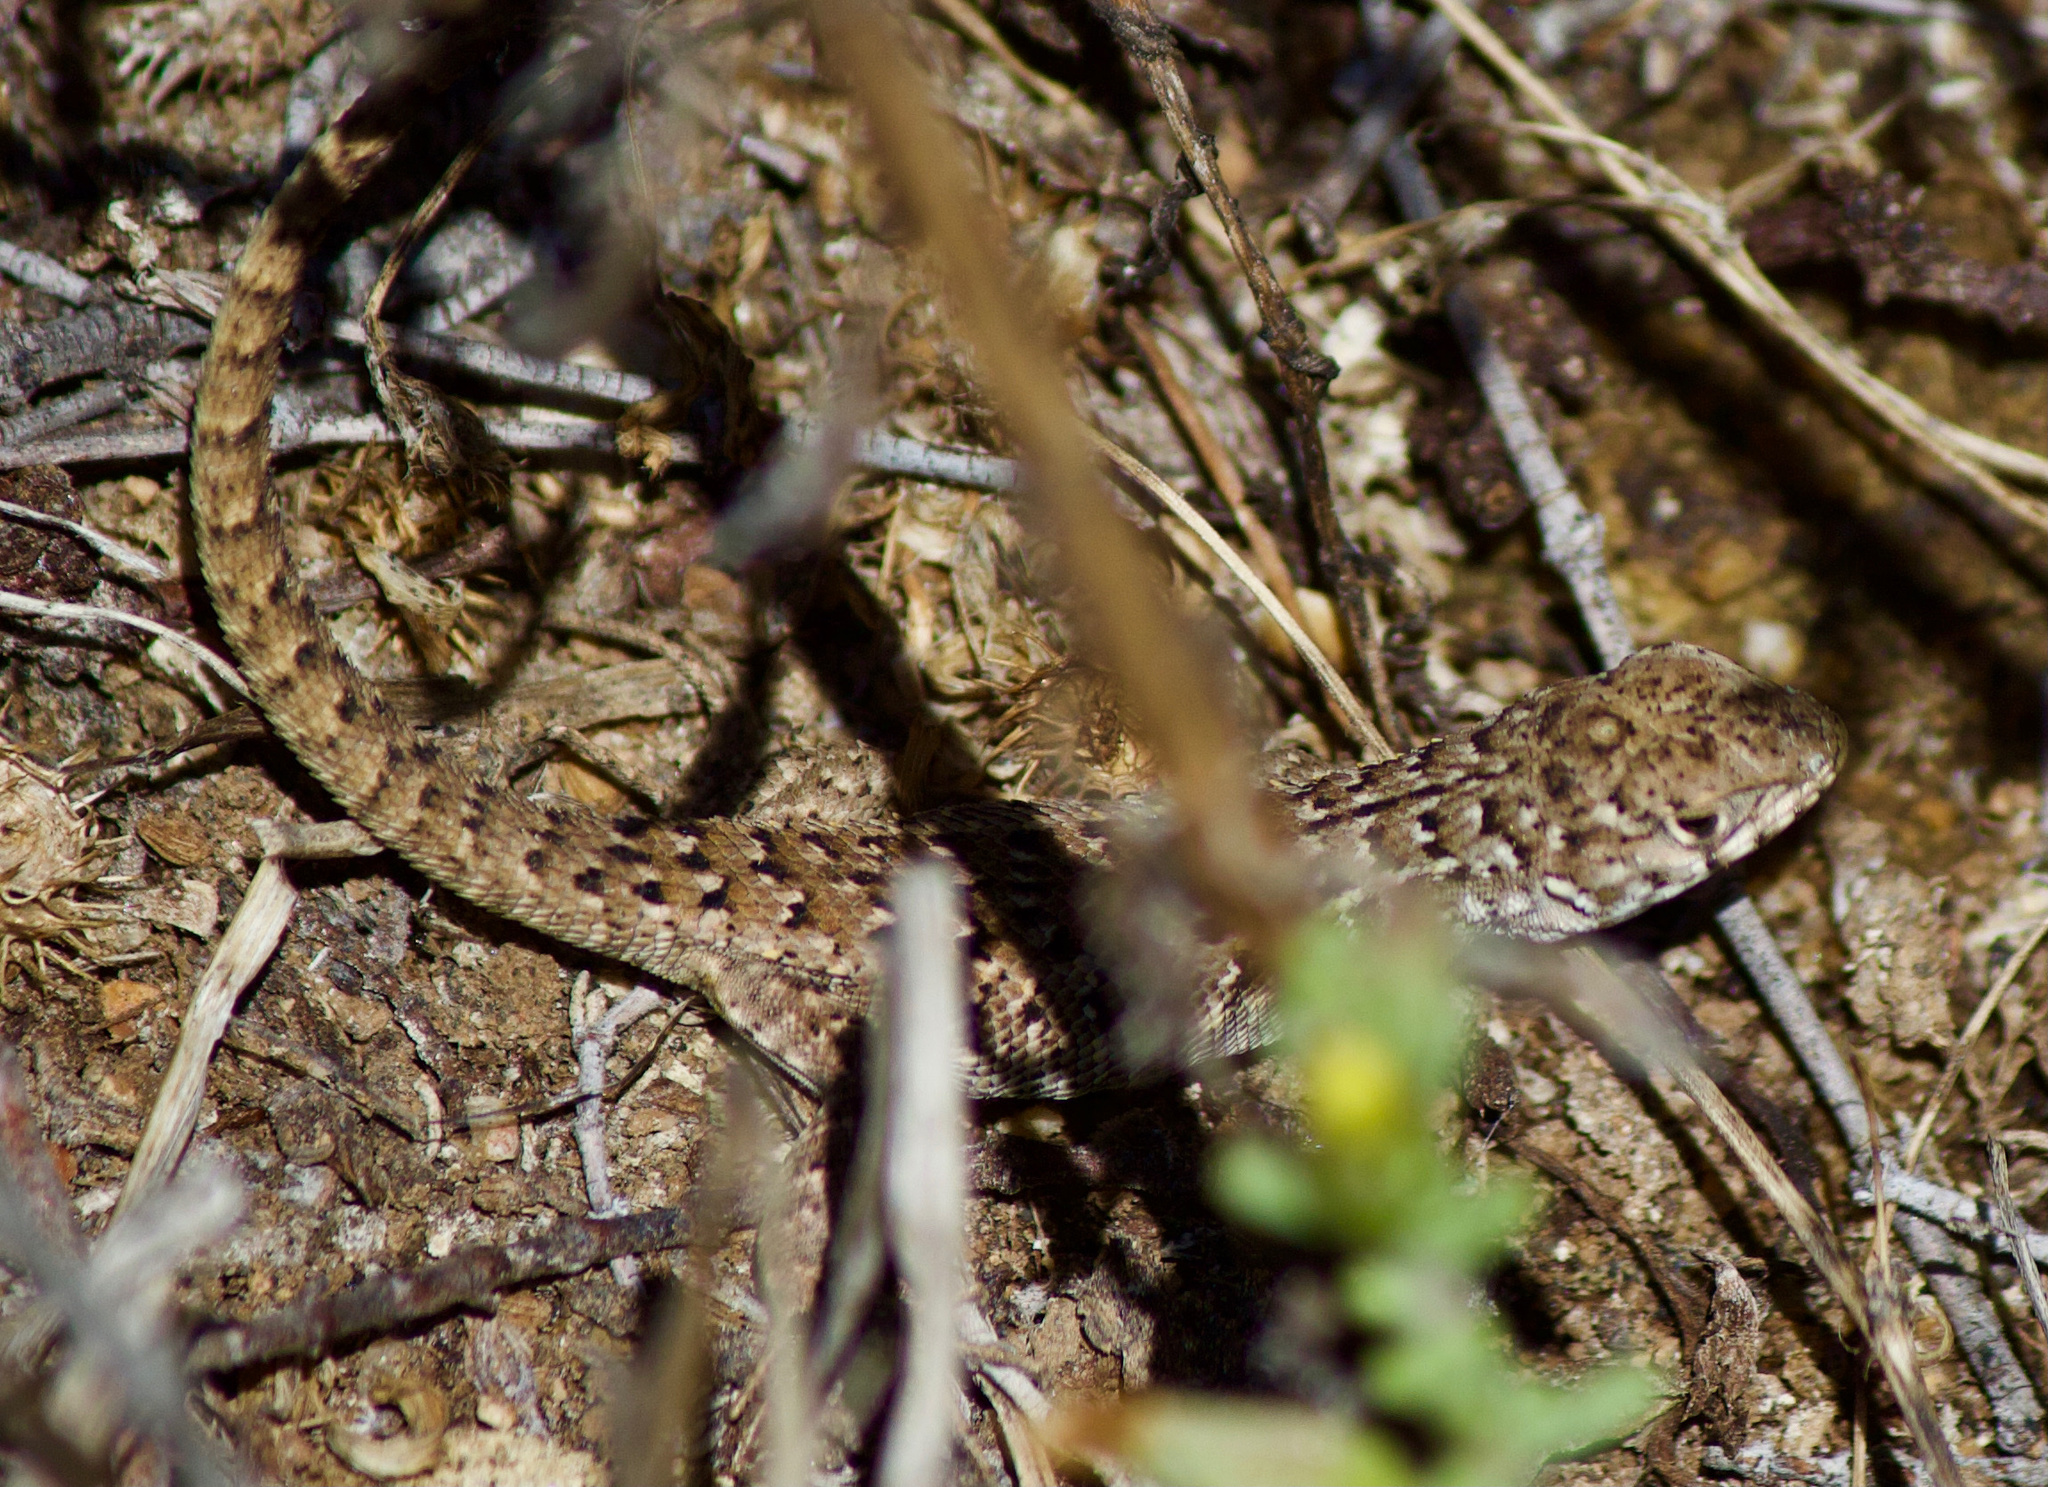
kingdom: Animalia
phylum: Chordata
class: Squamata
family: Liolaemidae
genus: Liolaemus
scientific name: Liolaemus nitidus
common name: Shining tree iguana
